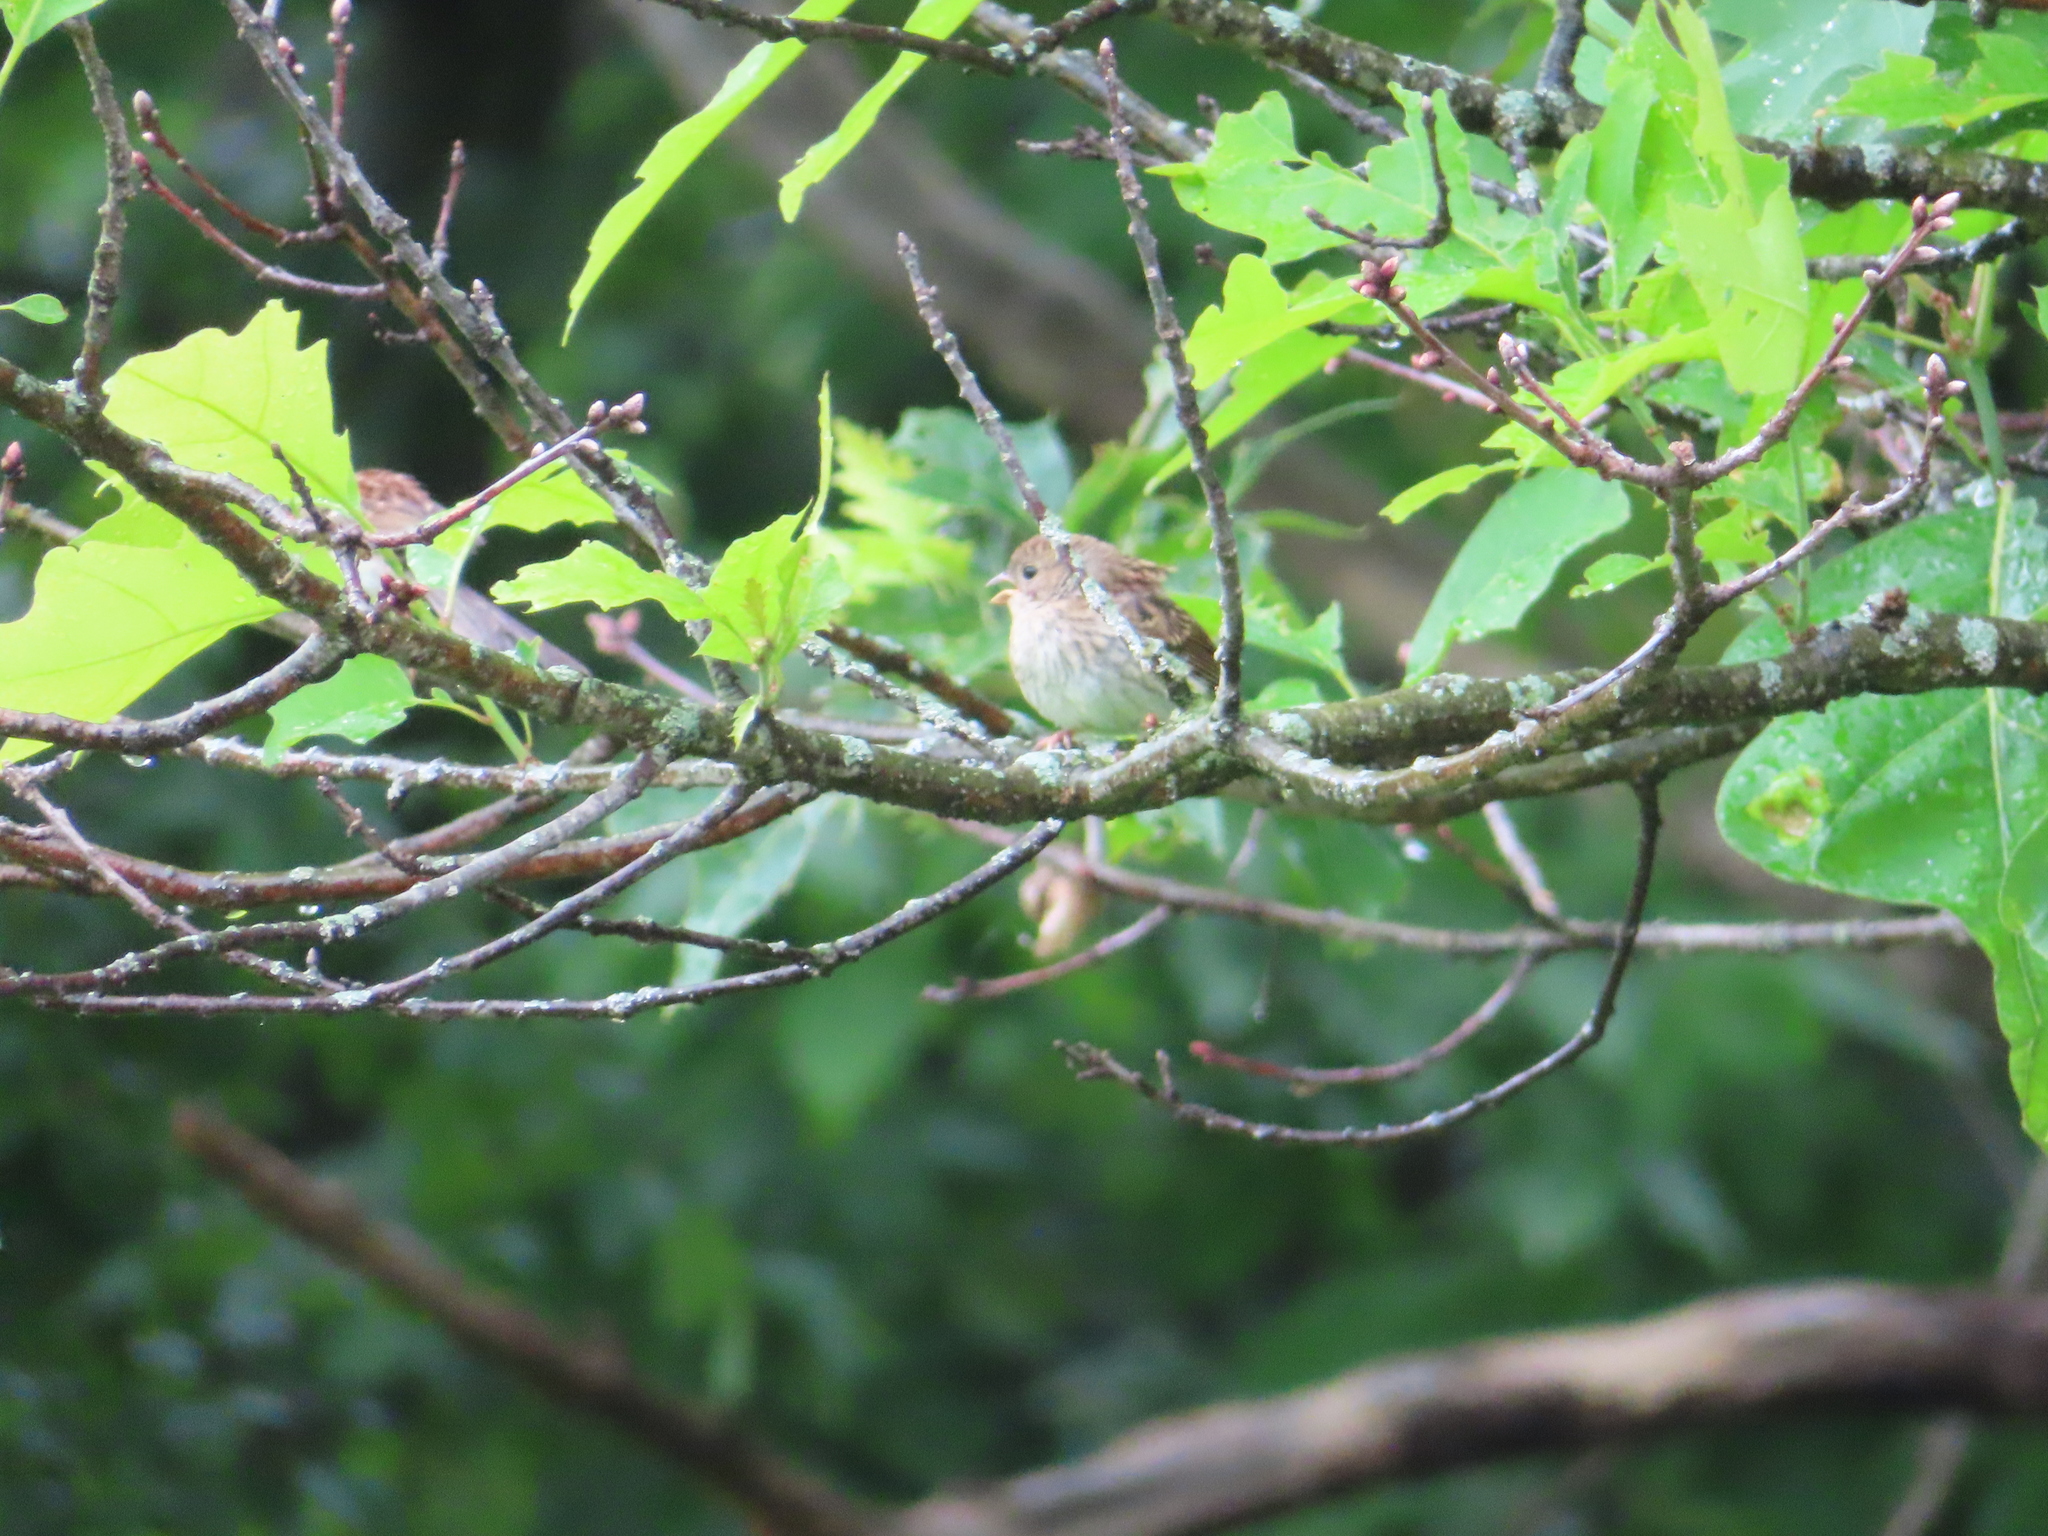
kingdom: Animalia
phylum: Chordata
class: Aves
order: Passeriformes
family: Passerellidae
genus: Spizella
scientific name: Spizella pusilla
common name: Field sparrow
